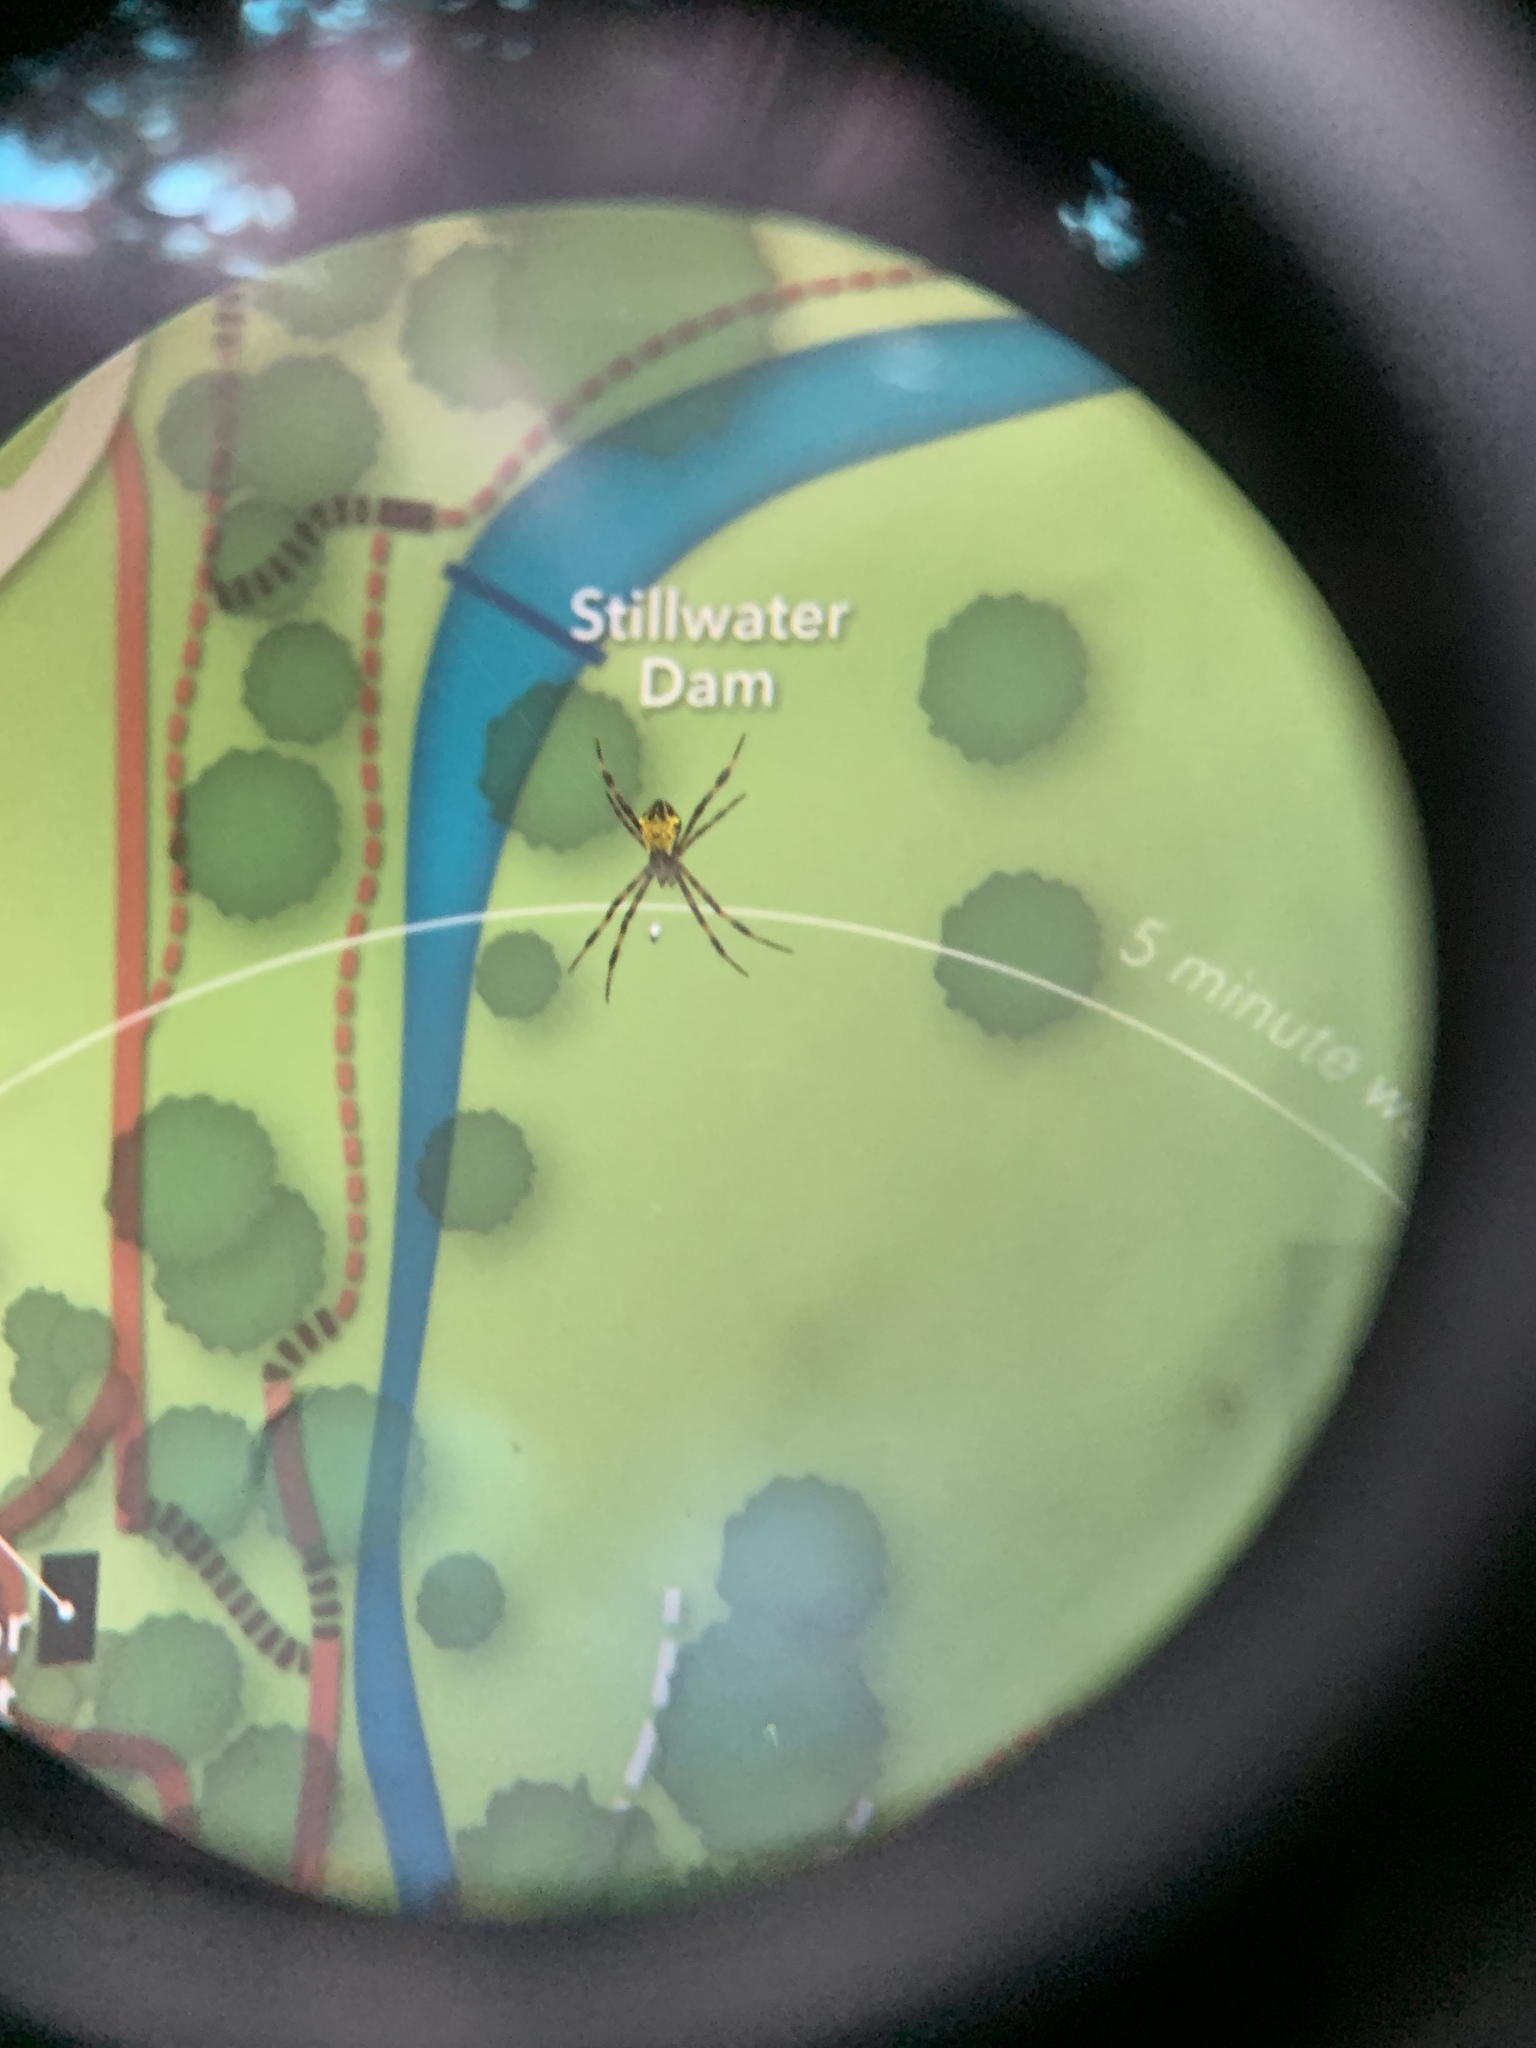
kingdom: Animalia
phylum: Arthropoda
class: Arachnida
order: Araneae
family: Araneidae
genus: Argiope
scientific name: Argiope appensa
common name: Garden spider
